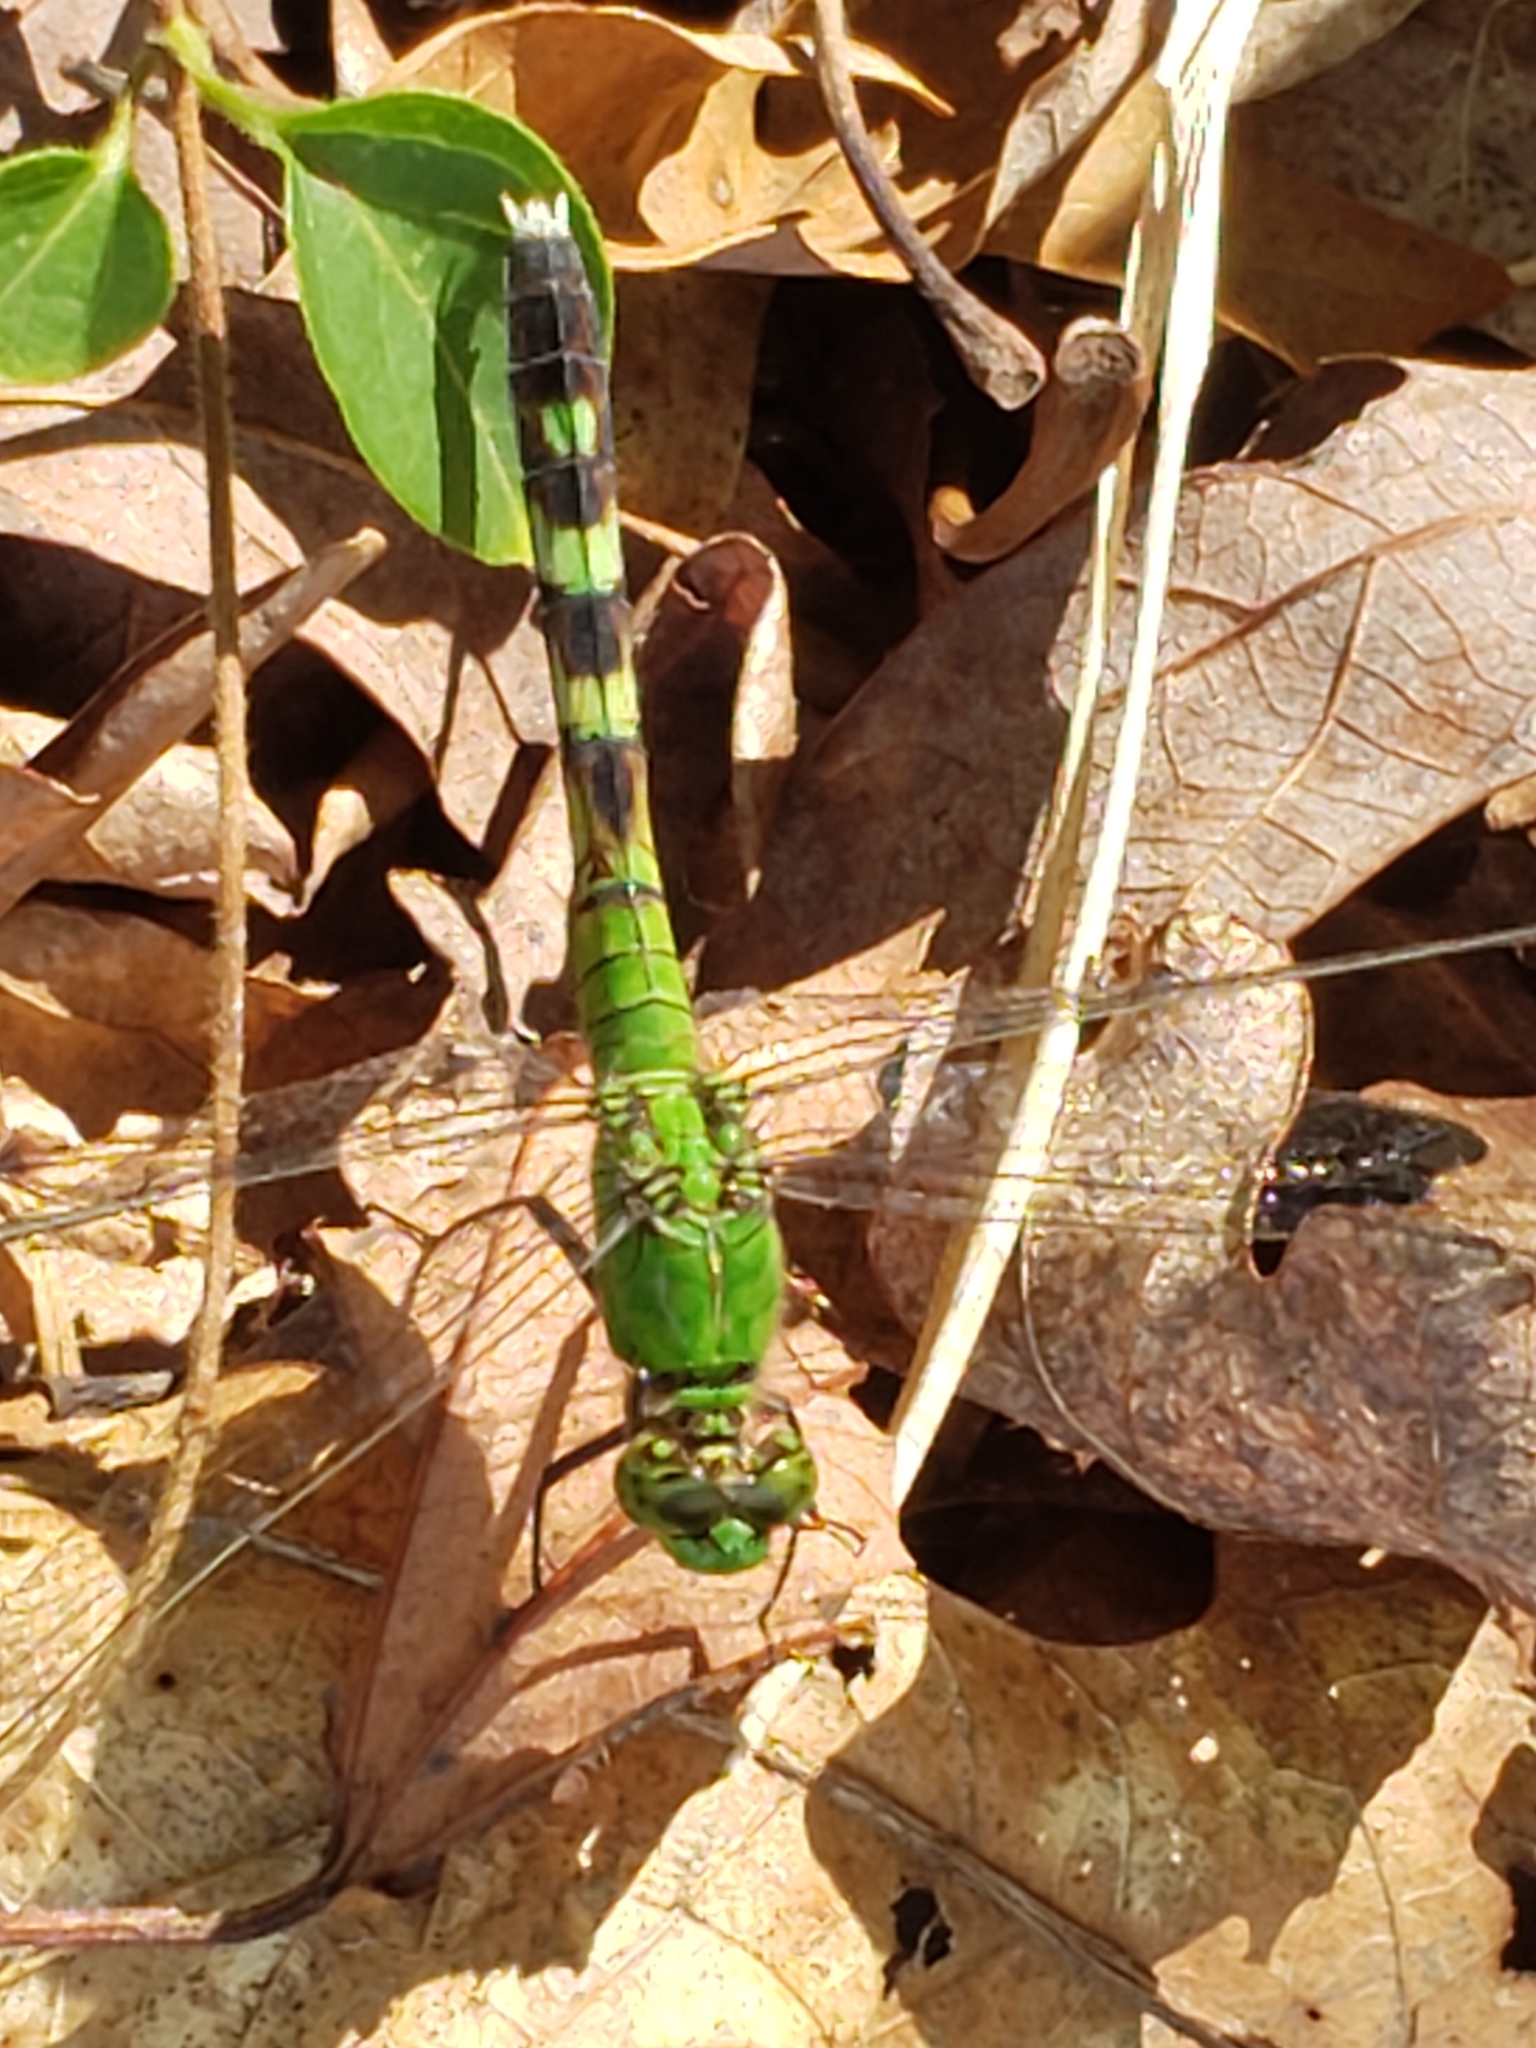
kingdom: Animalia
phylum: Arthropoda
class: Insecta
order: Odonata
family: Libellulidae
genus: Erythemis
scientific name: Erythemis simplicicollis
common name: Eastern pondhawk
